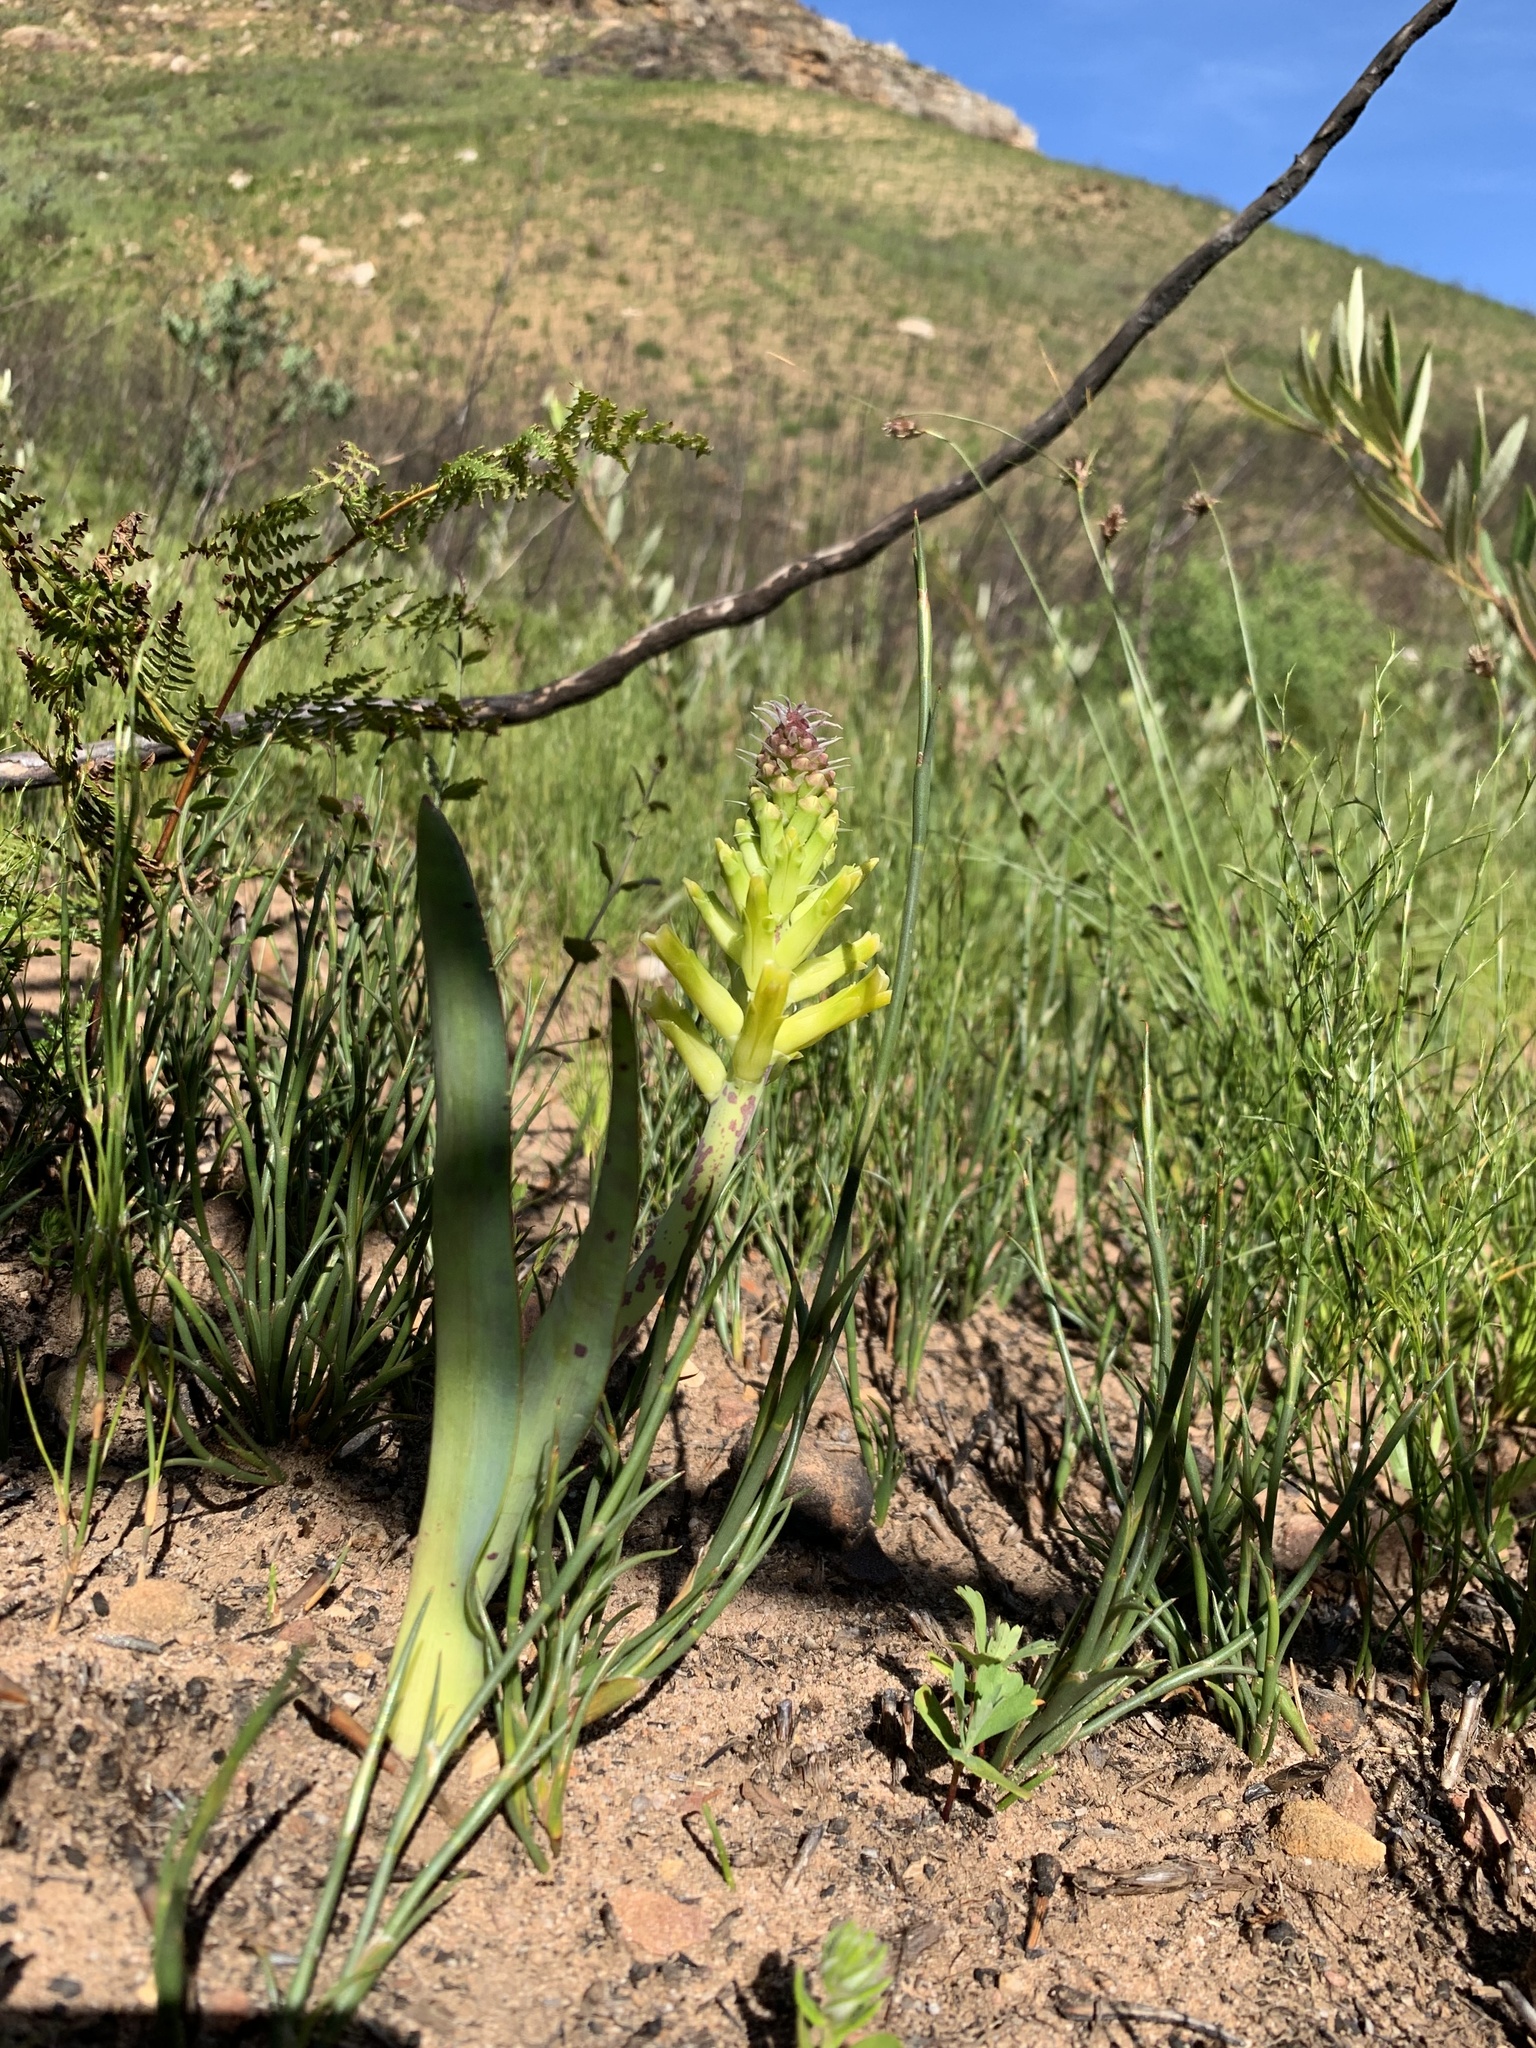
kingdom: Plantae
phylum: Tracheophyta
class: Liliopsida
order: Asparagales
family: Asparagaceae
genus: Lachenalia
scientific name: Lachenalia orchioides
